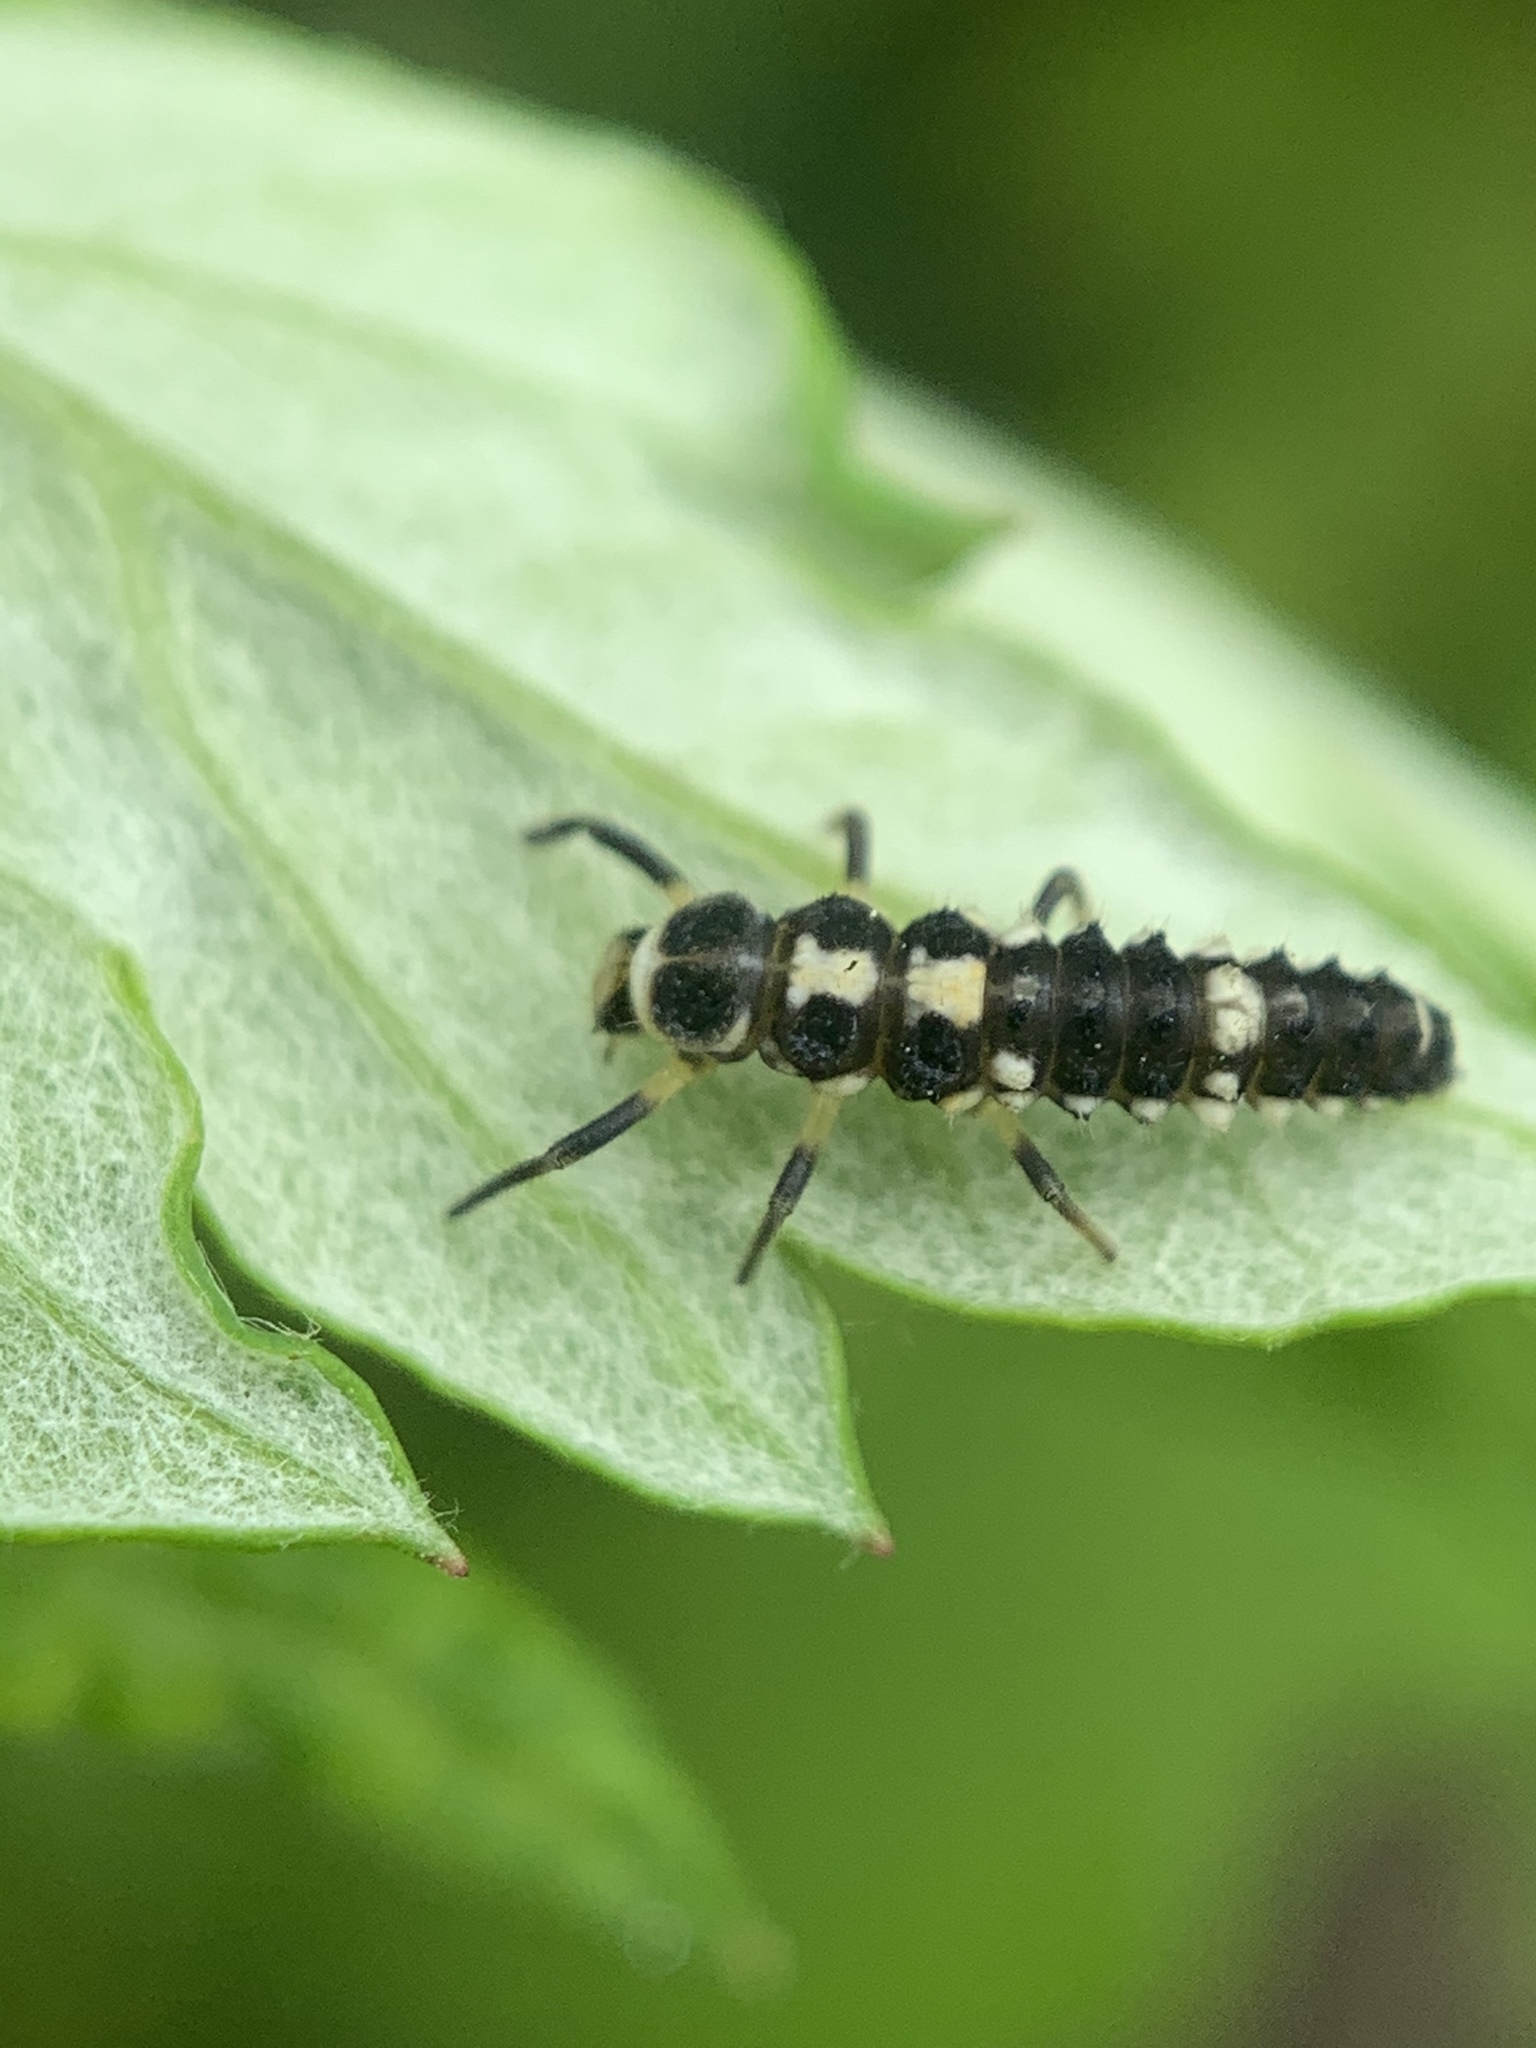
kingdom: Animalia
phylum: Arthropoda
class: Insecta
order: Coleoptera
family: Coccinellidae
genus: Propylaea
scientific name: Propylaea quatuordecimpunctata
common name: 14-spotted ladybird beetle
